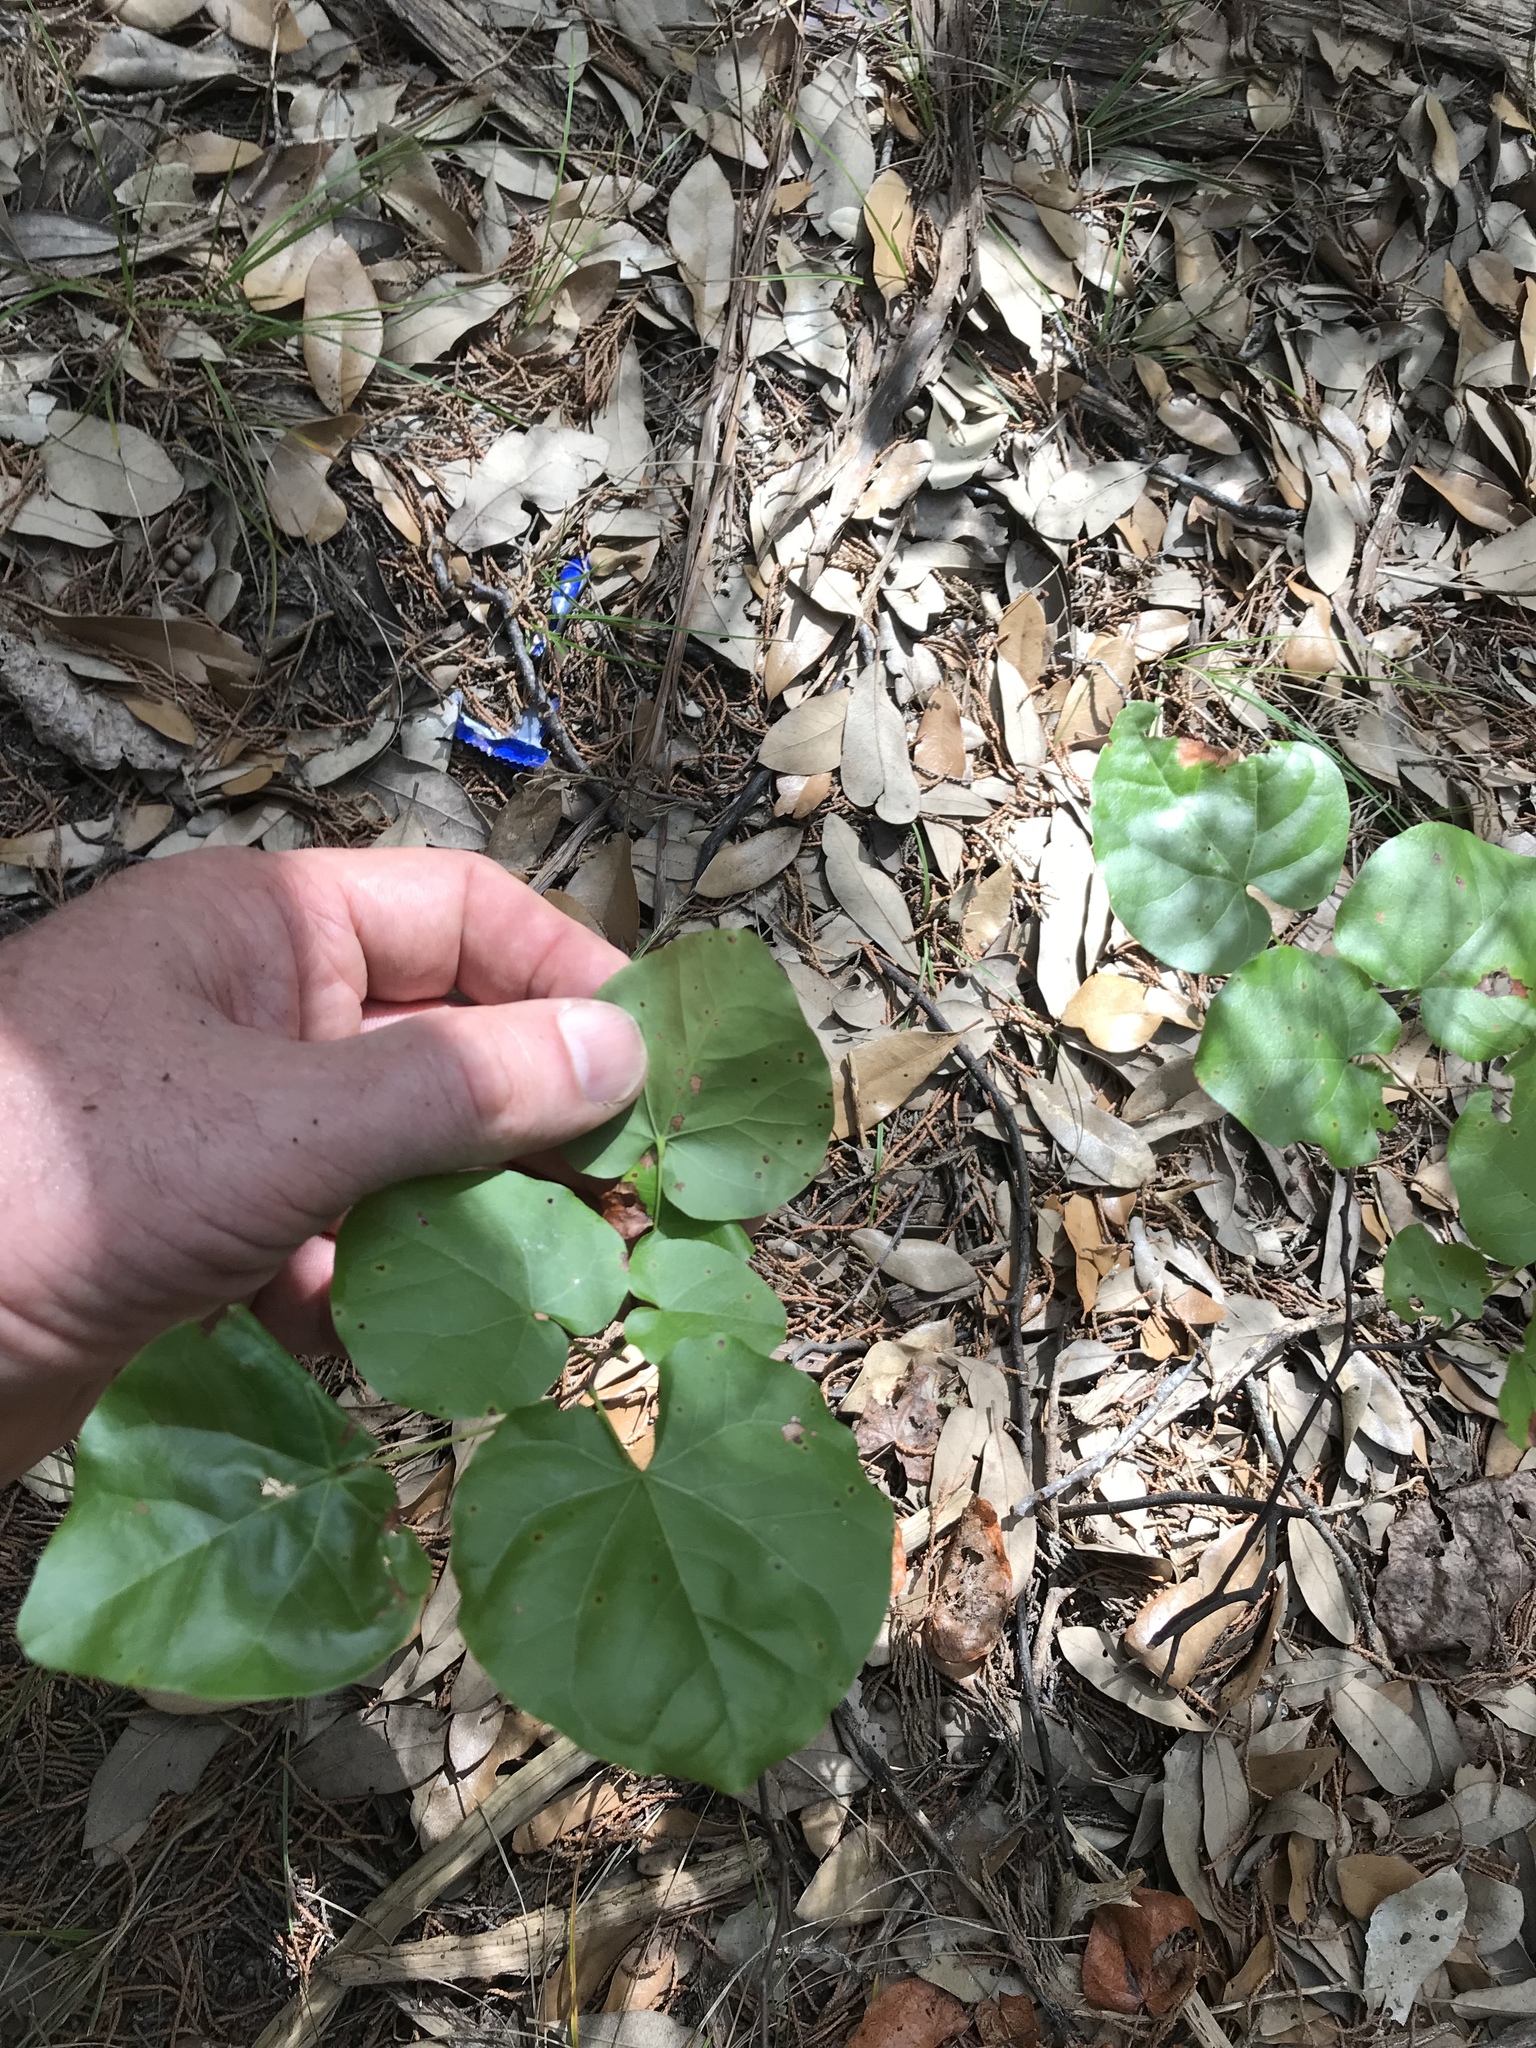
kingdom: Plantae
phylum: Tracheophyta
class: Magnoliopsida
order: Fabales
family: Fabaceae
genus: Cercis
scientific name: Cercis canadensis
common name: Eastern redbud
